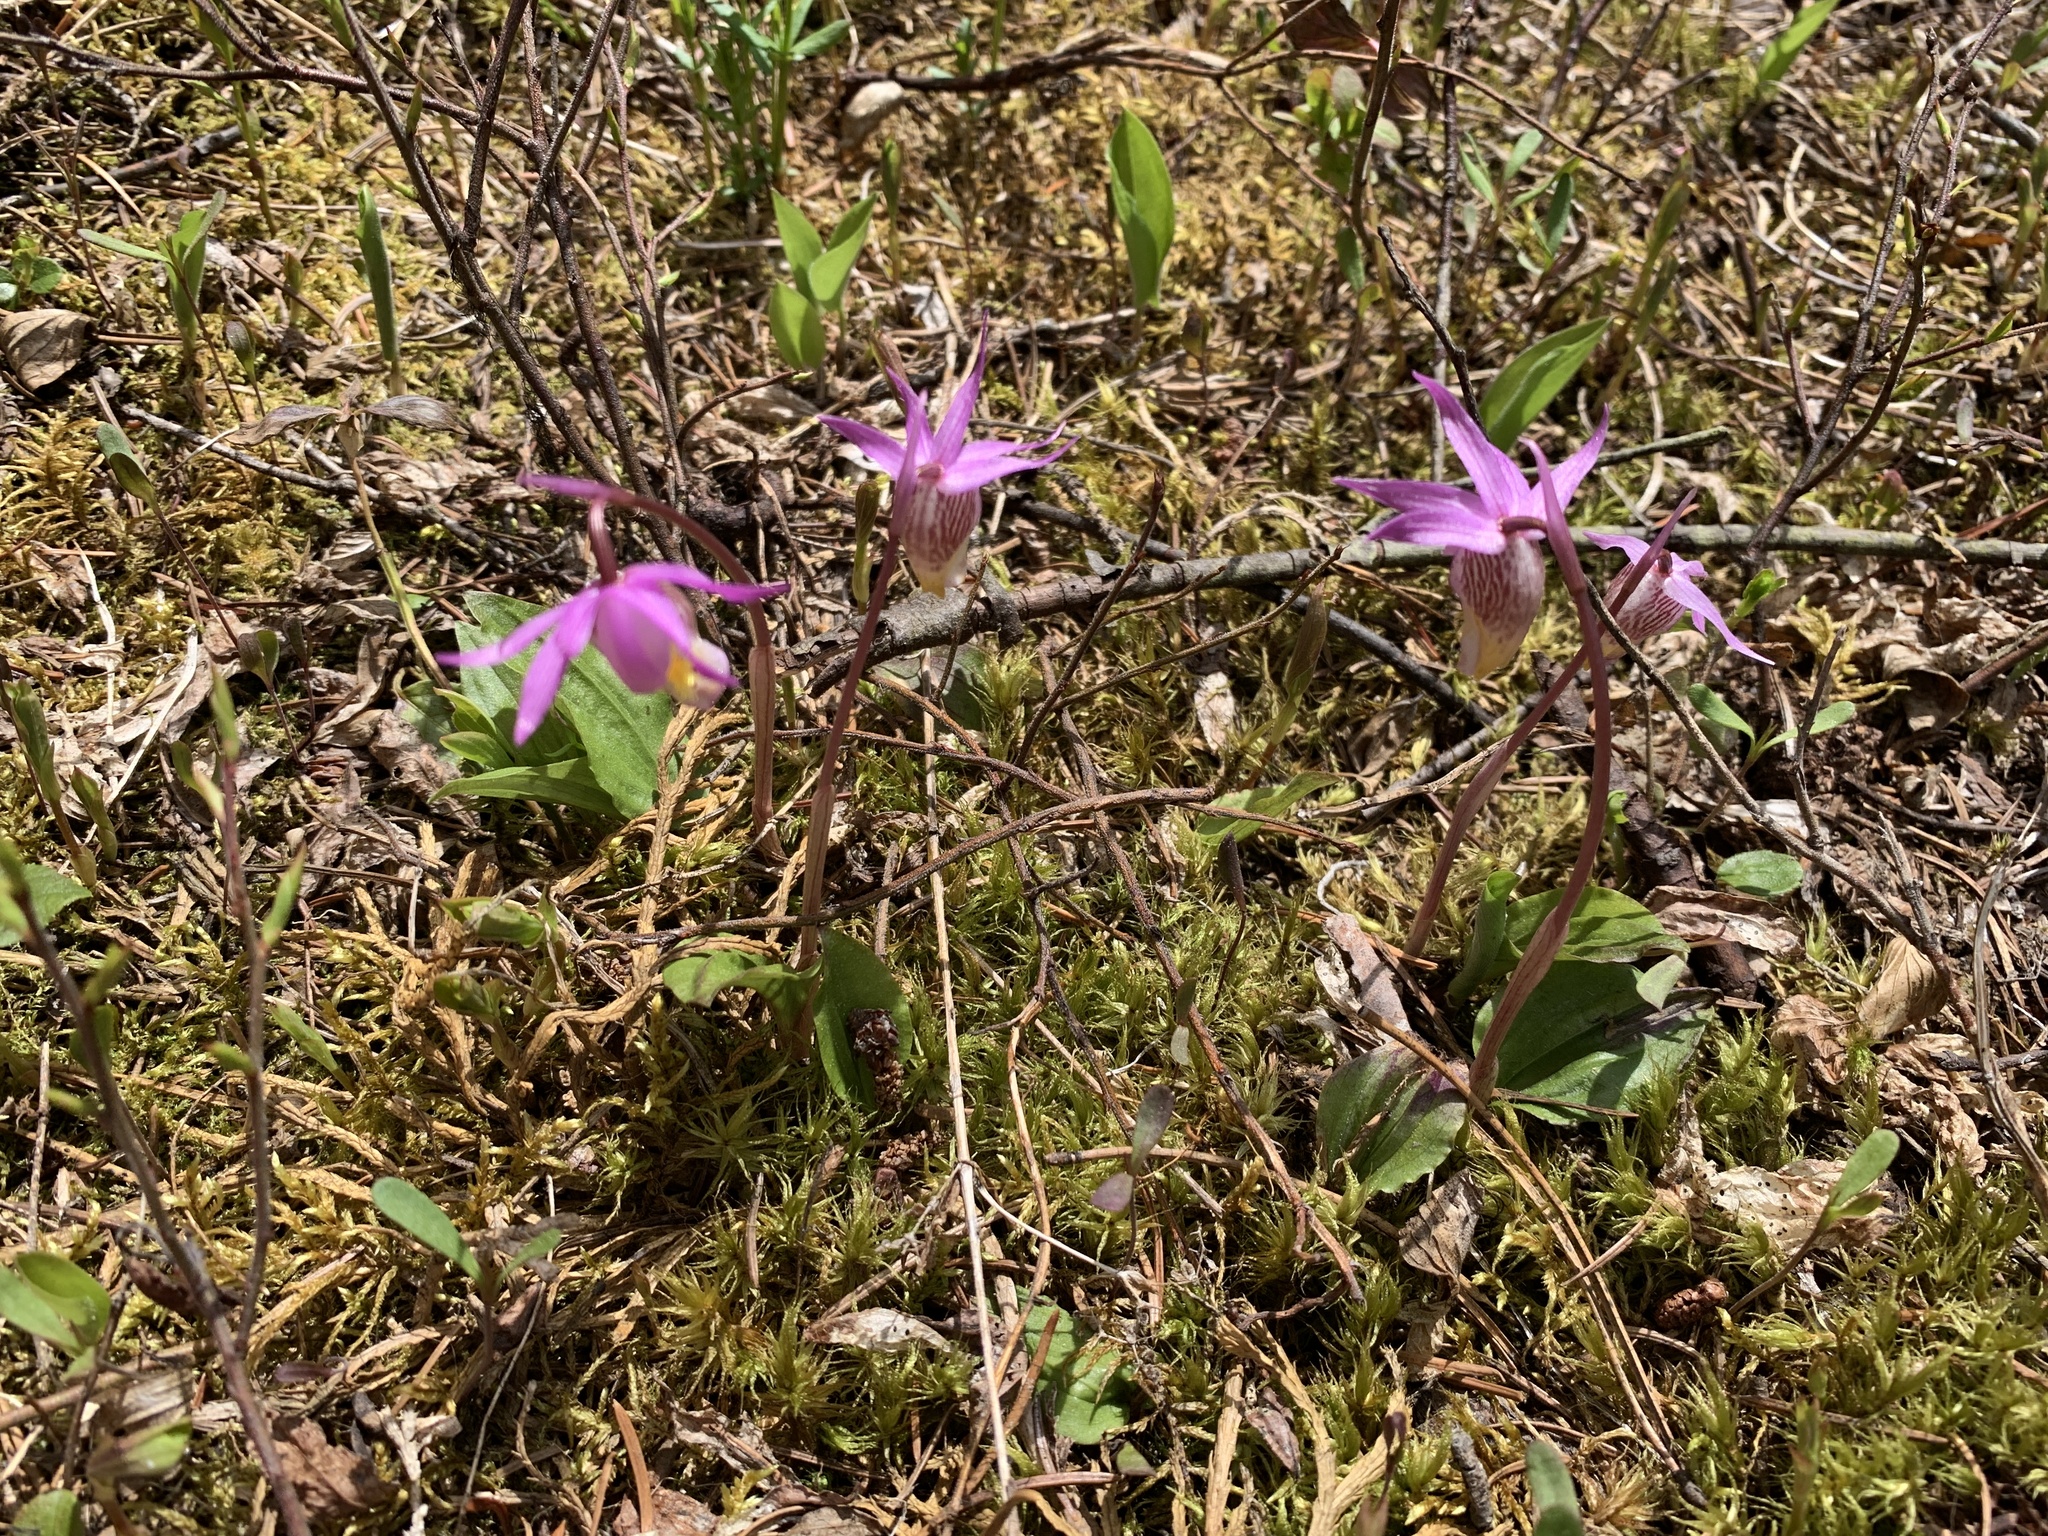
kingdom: Plantae
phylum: Tracheophyta
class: Liliopsida
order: Asparagales
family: Orchidaceae
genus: Calypso
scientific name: Calypso bulbosa
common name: Calypso
